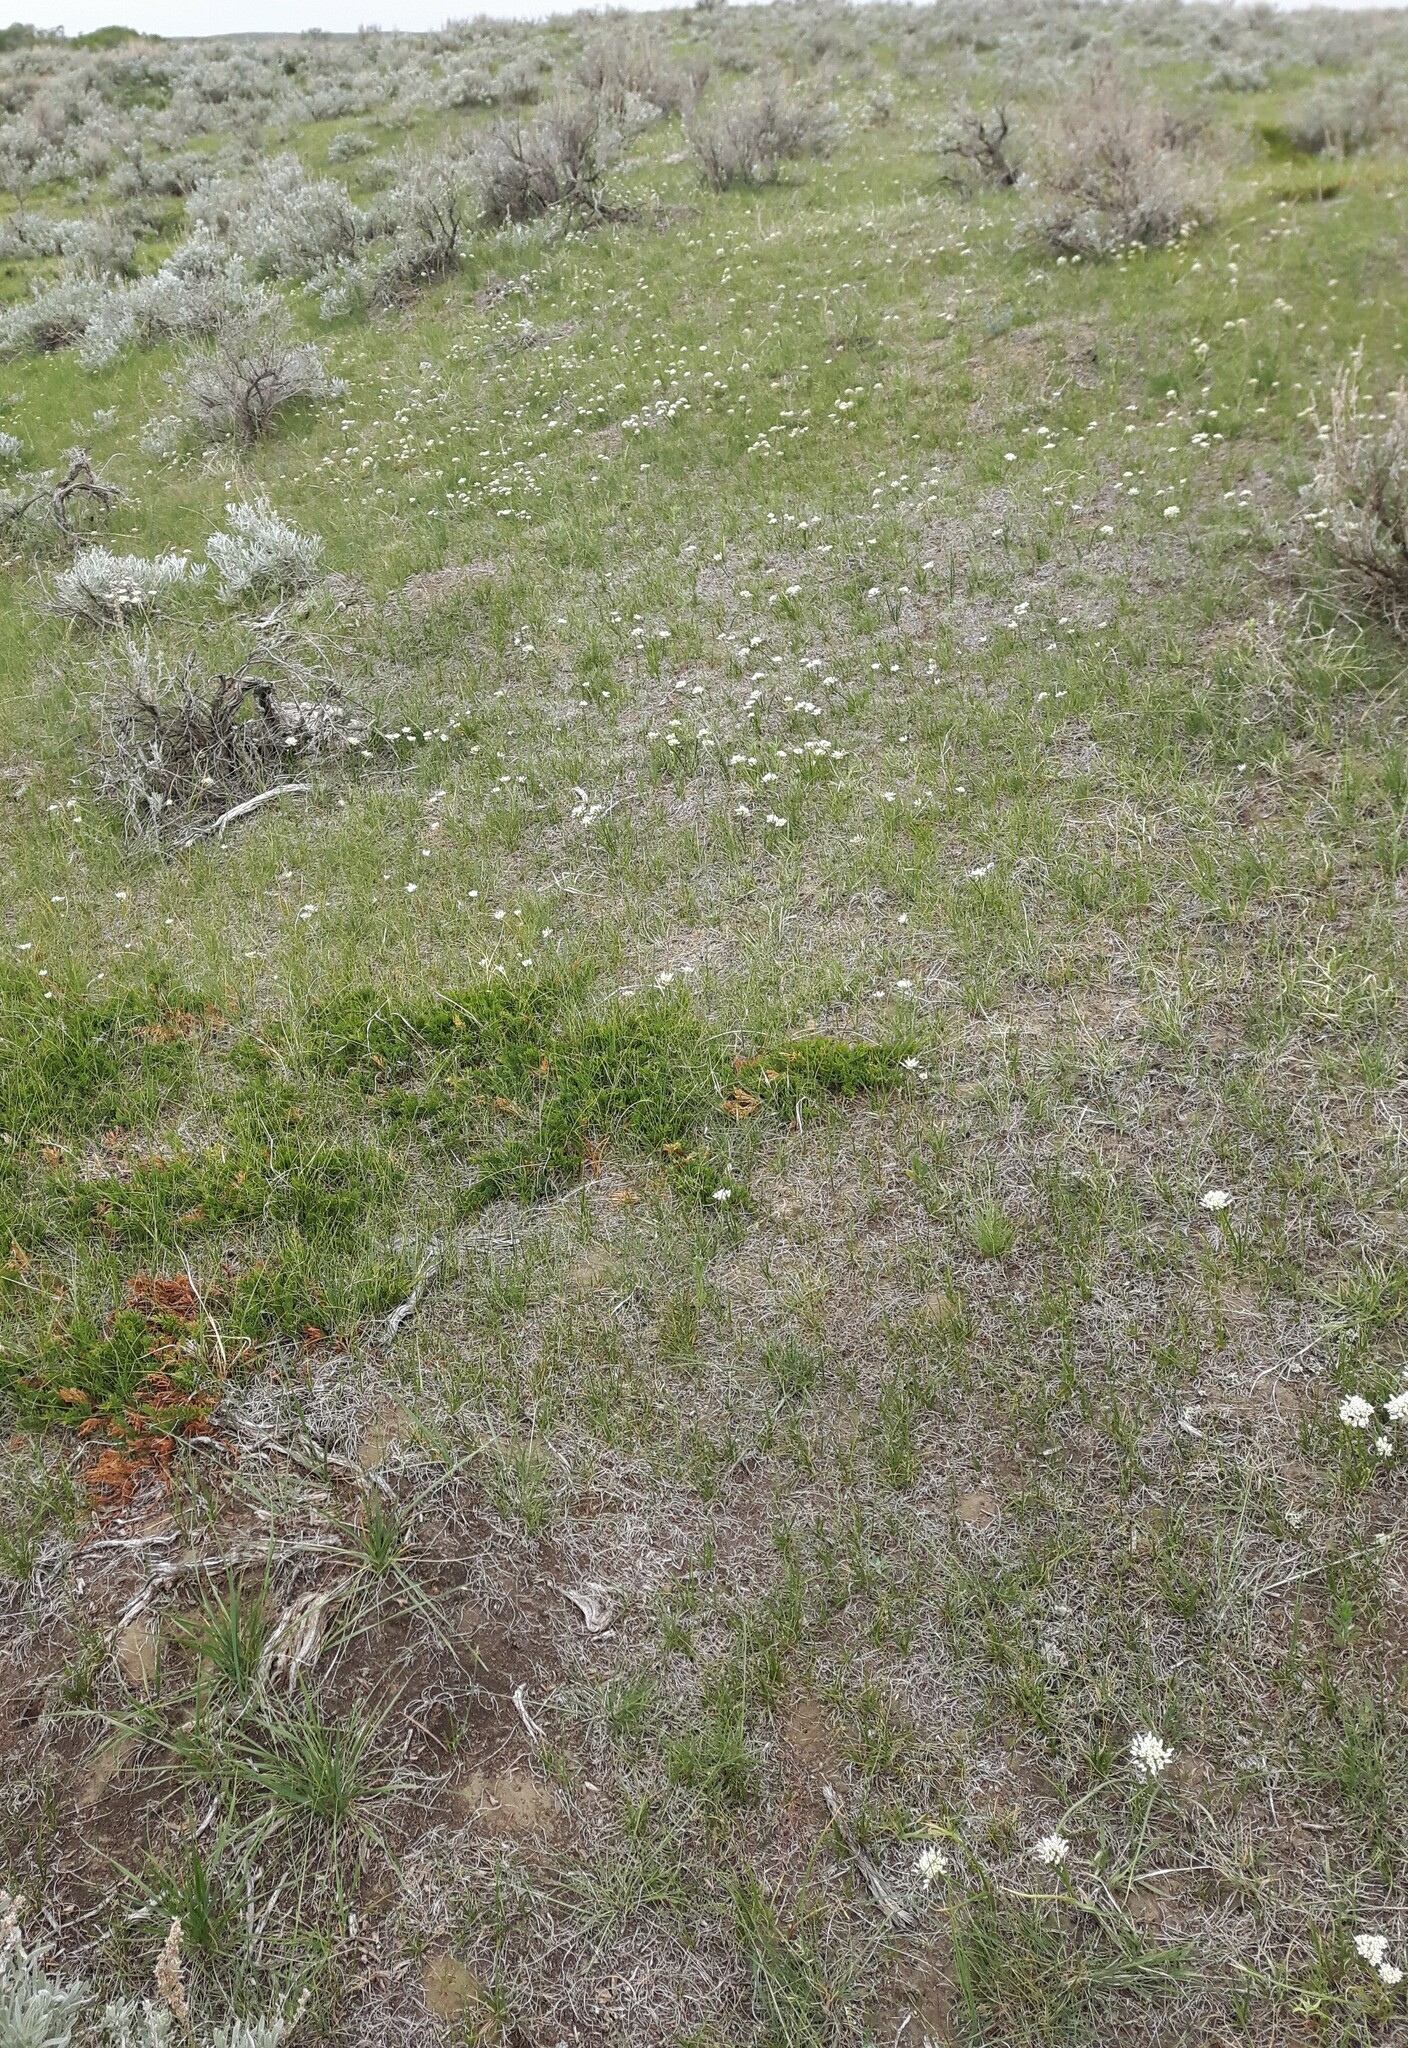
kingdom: Plantae
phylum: Tracheophyta
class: Liliopsida
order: Asparagales
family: Amaryllidaceae
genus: Allium
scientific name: Allium textile
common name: Prairie onion
